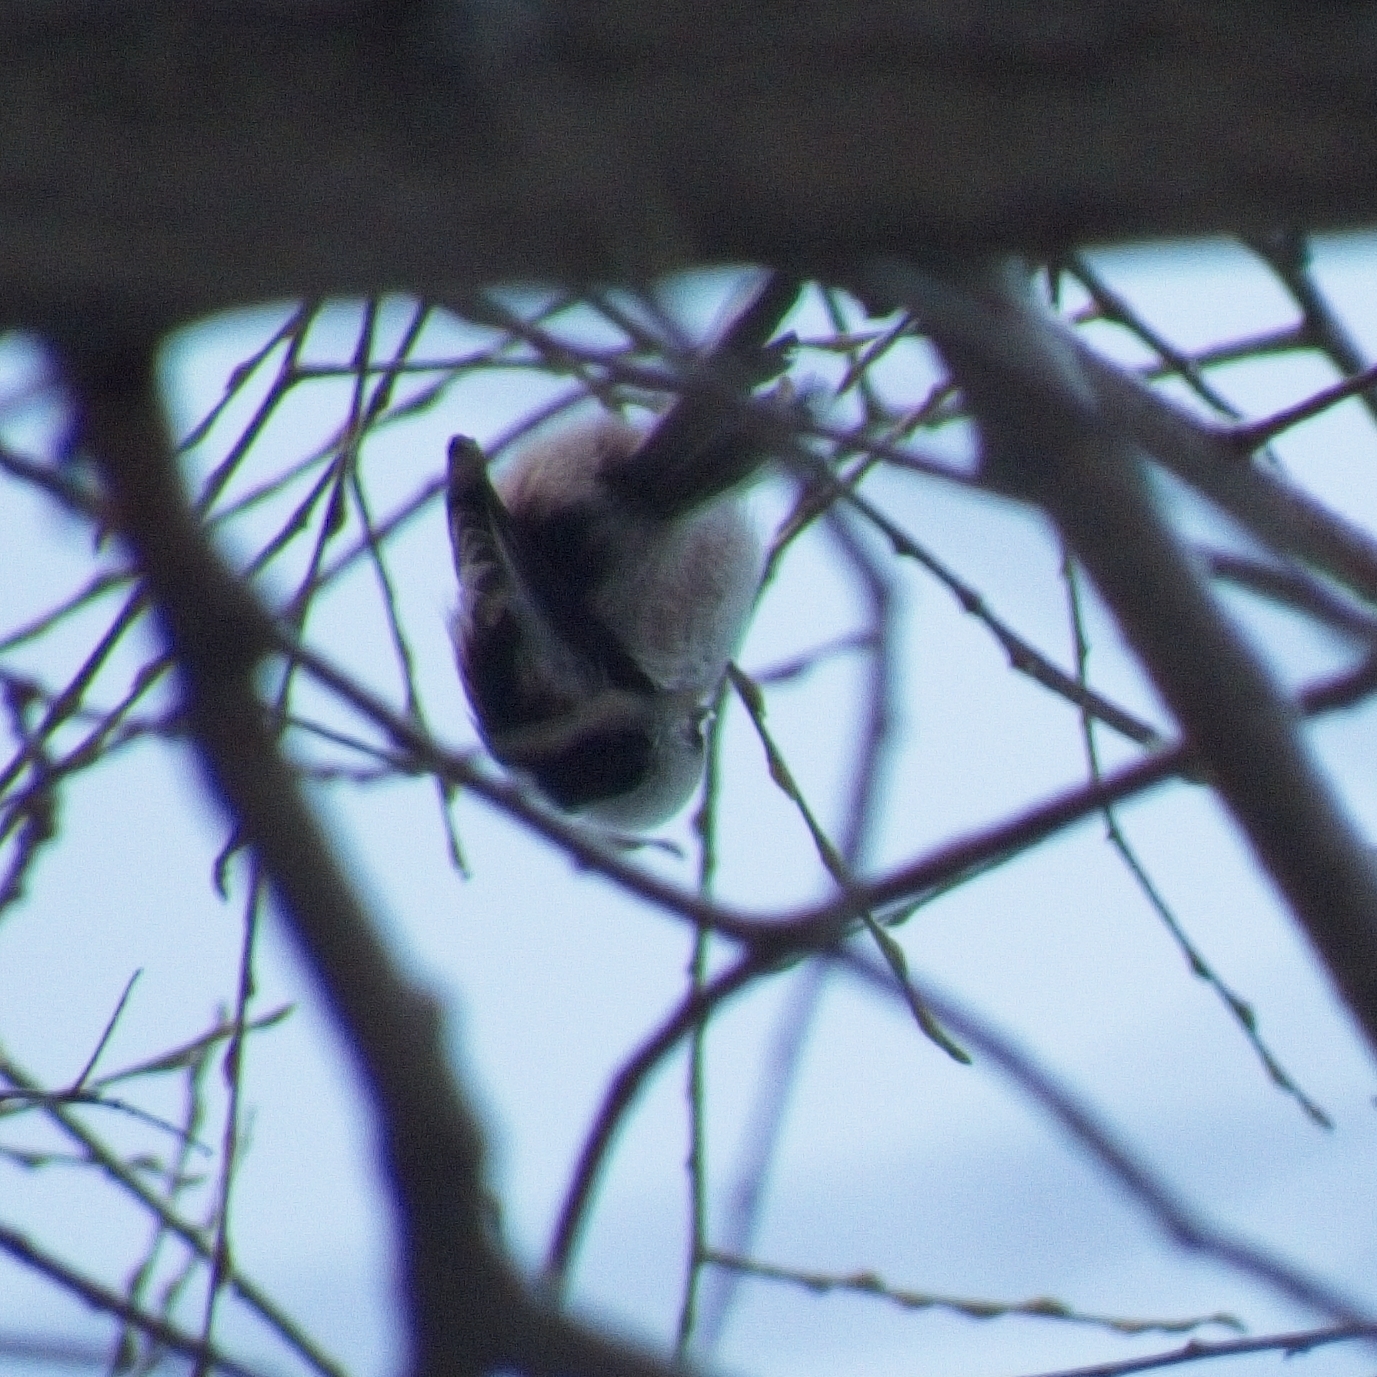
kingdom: Animalia
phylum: Chordata
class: Aves
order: Passeriformes
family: Aegithalidae
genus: Aegithalos
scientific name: Aegithalos caudatus
